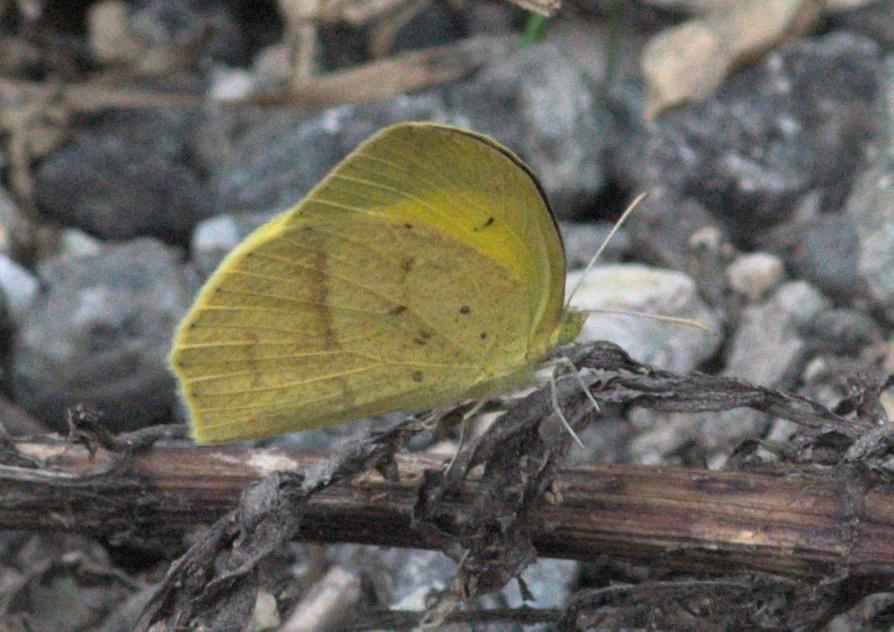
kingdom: Animalia
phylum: Arthropoda
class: Insecta
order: Lepidoptera
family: Pieridae
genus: Eurema
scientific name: Eurema laeta
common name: Spotless grass yellow
